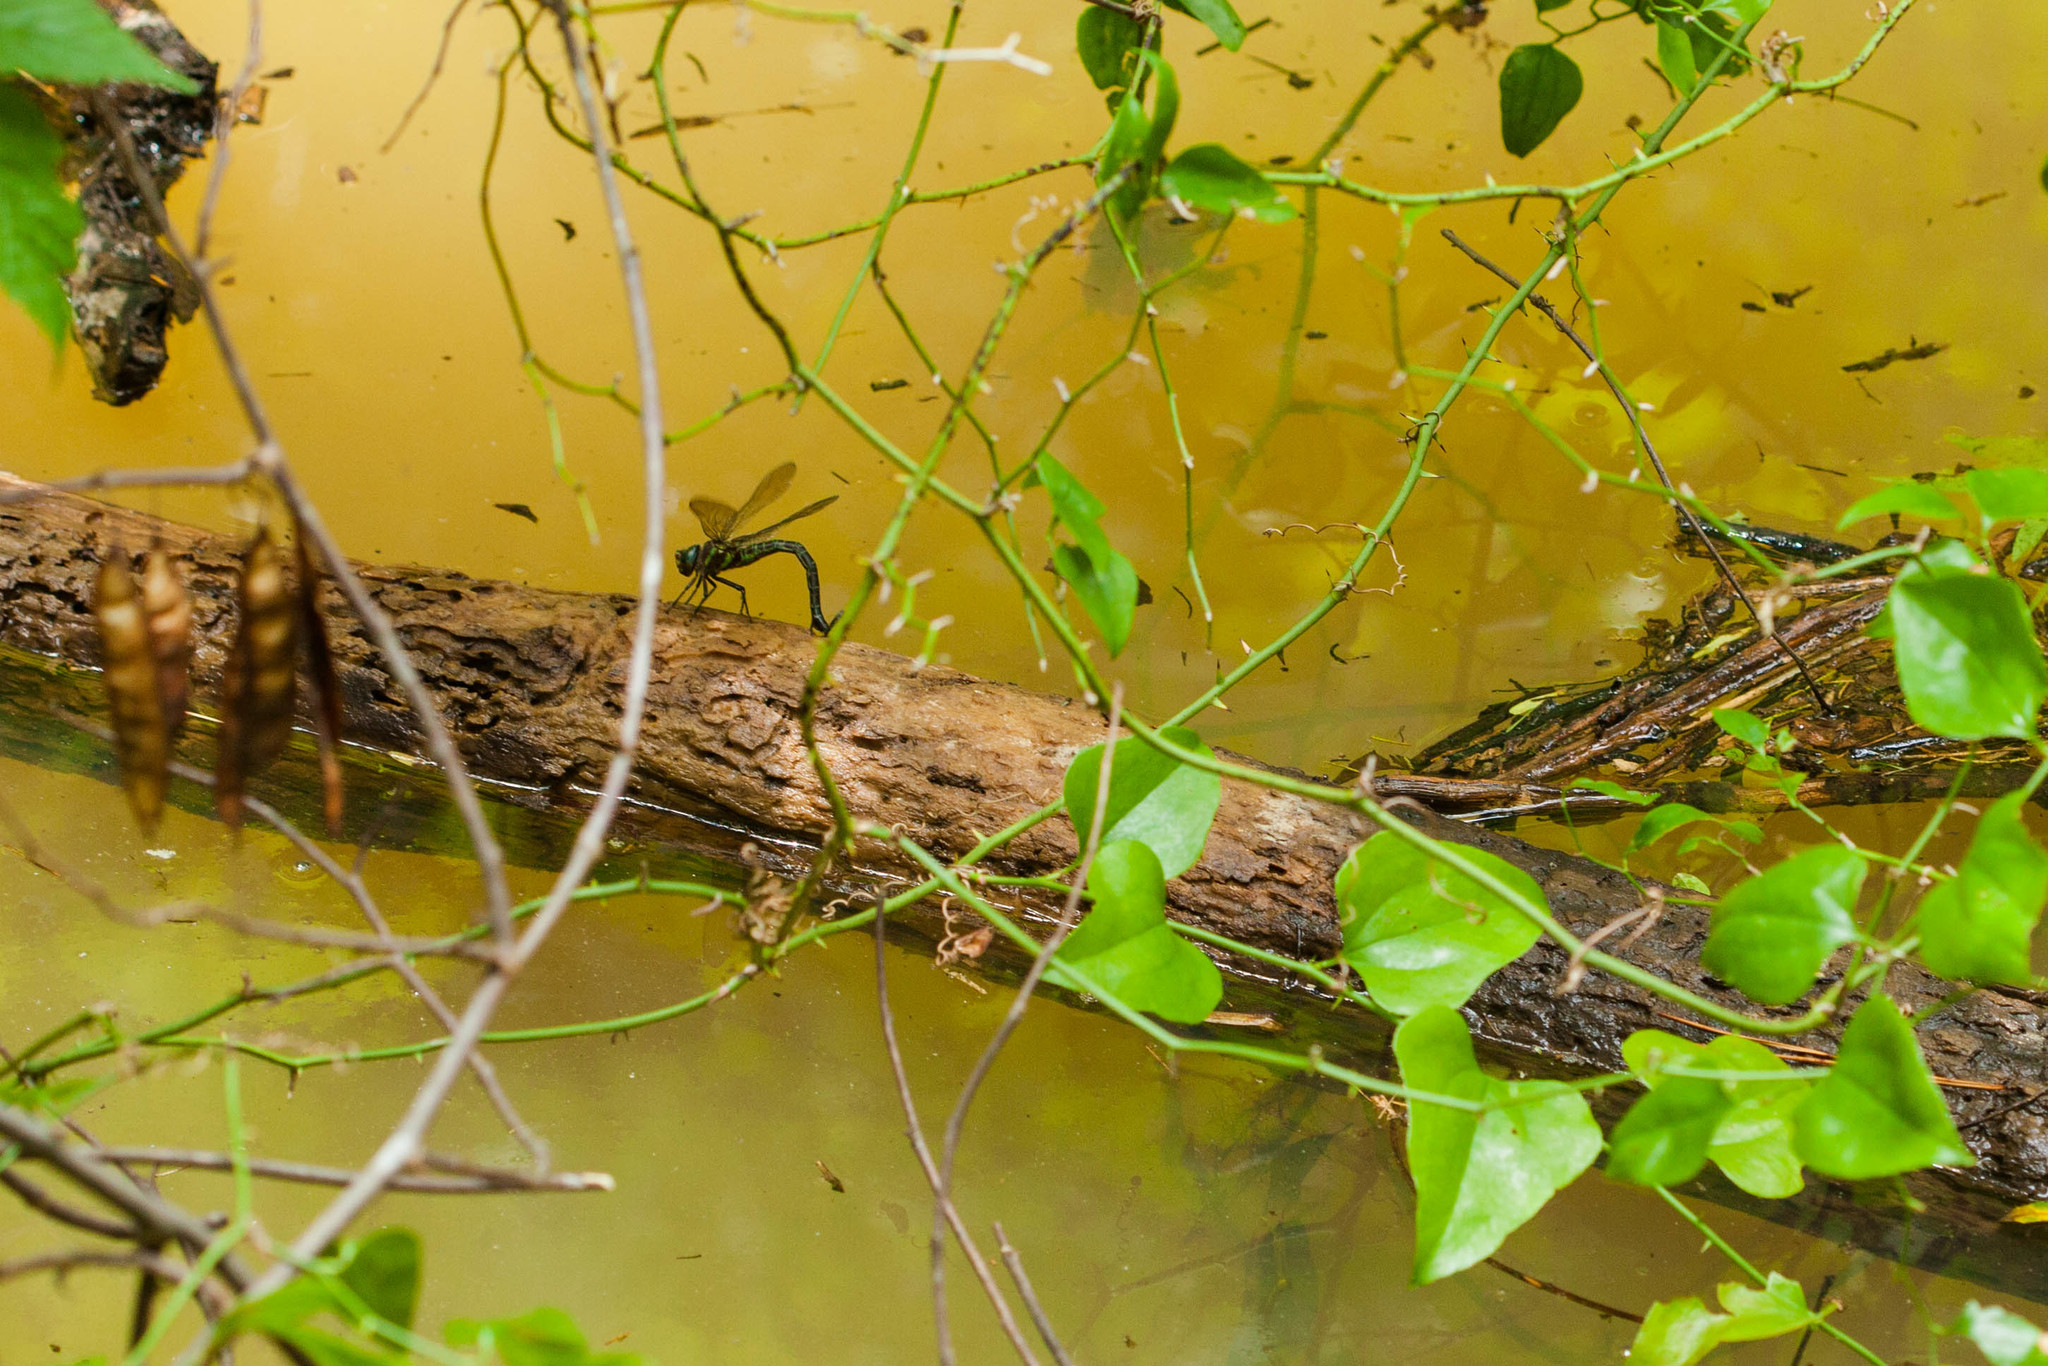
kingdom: Animalia
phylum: Arthropoda
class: Insecta
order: Odonata
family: Aeshnidae
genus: Epiaeschna
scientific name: Epiaeschna heros
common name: Swamp darner
